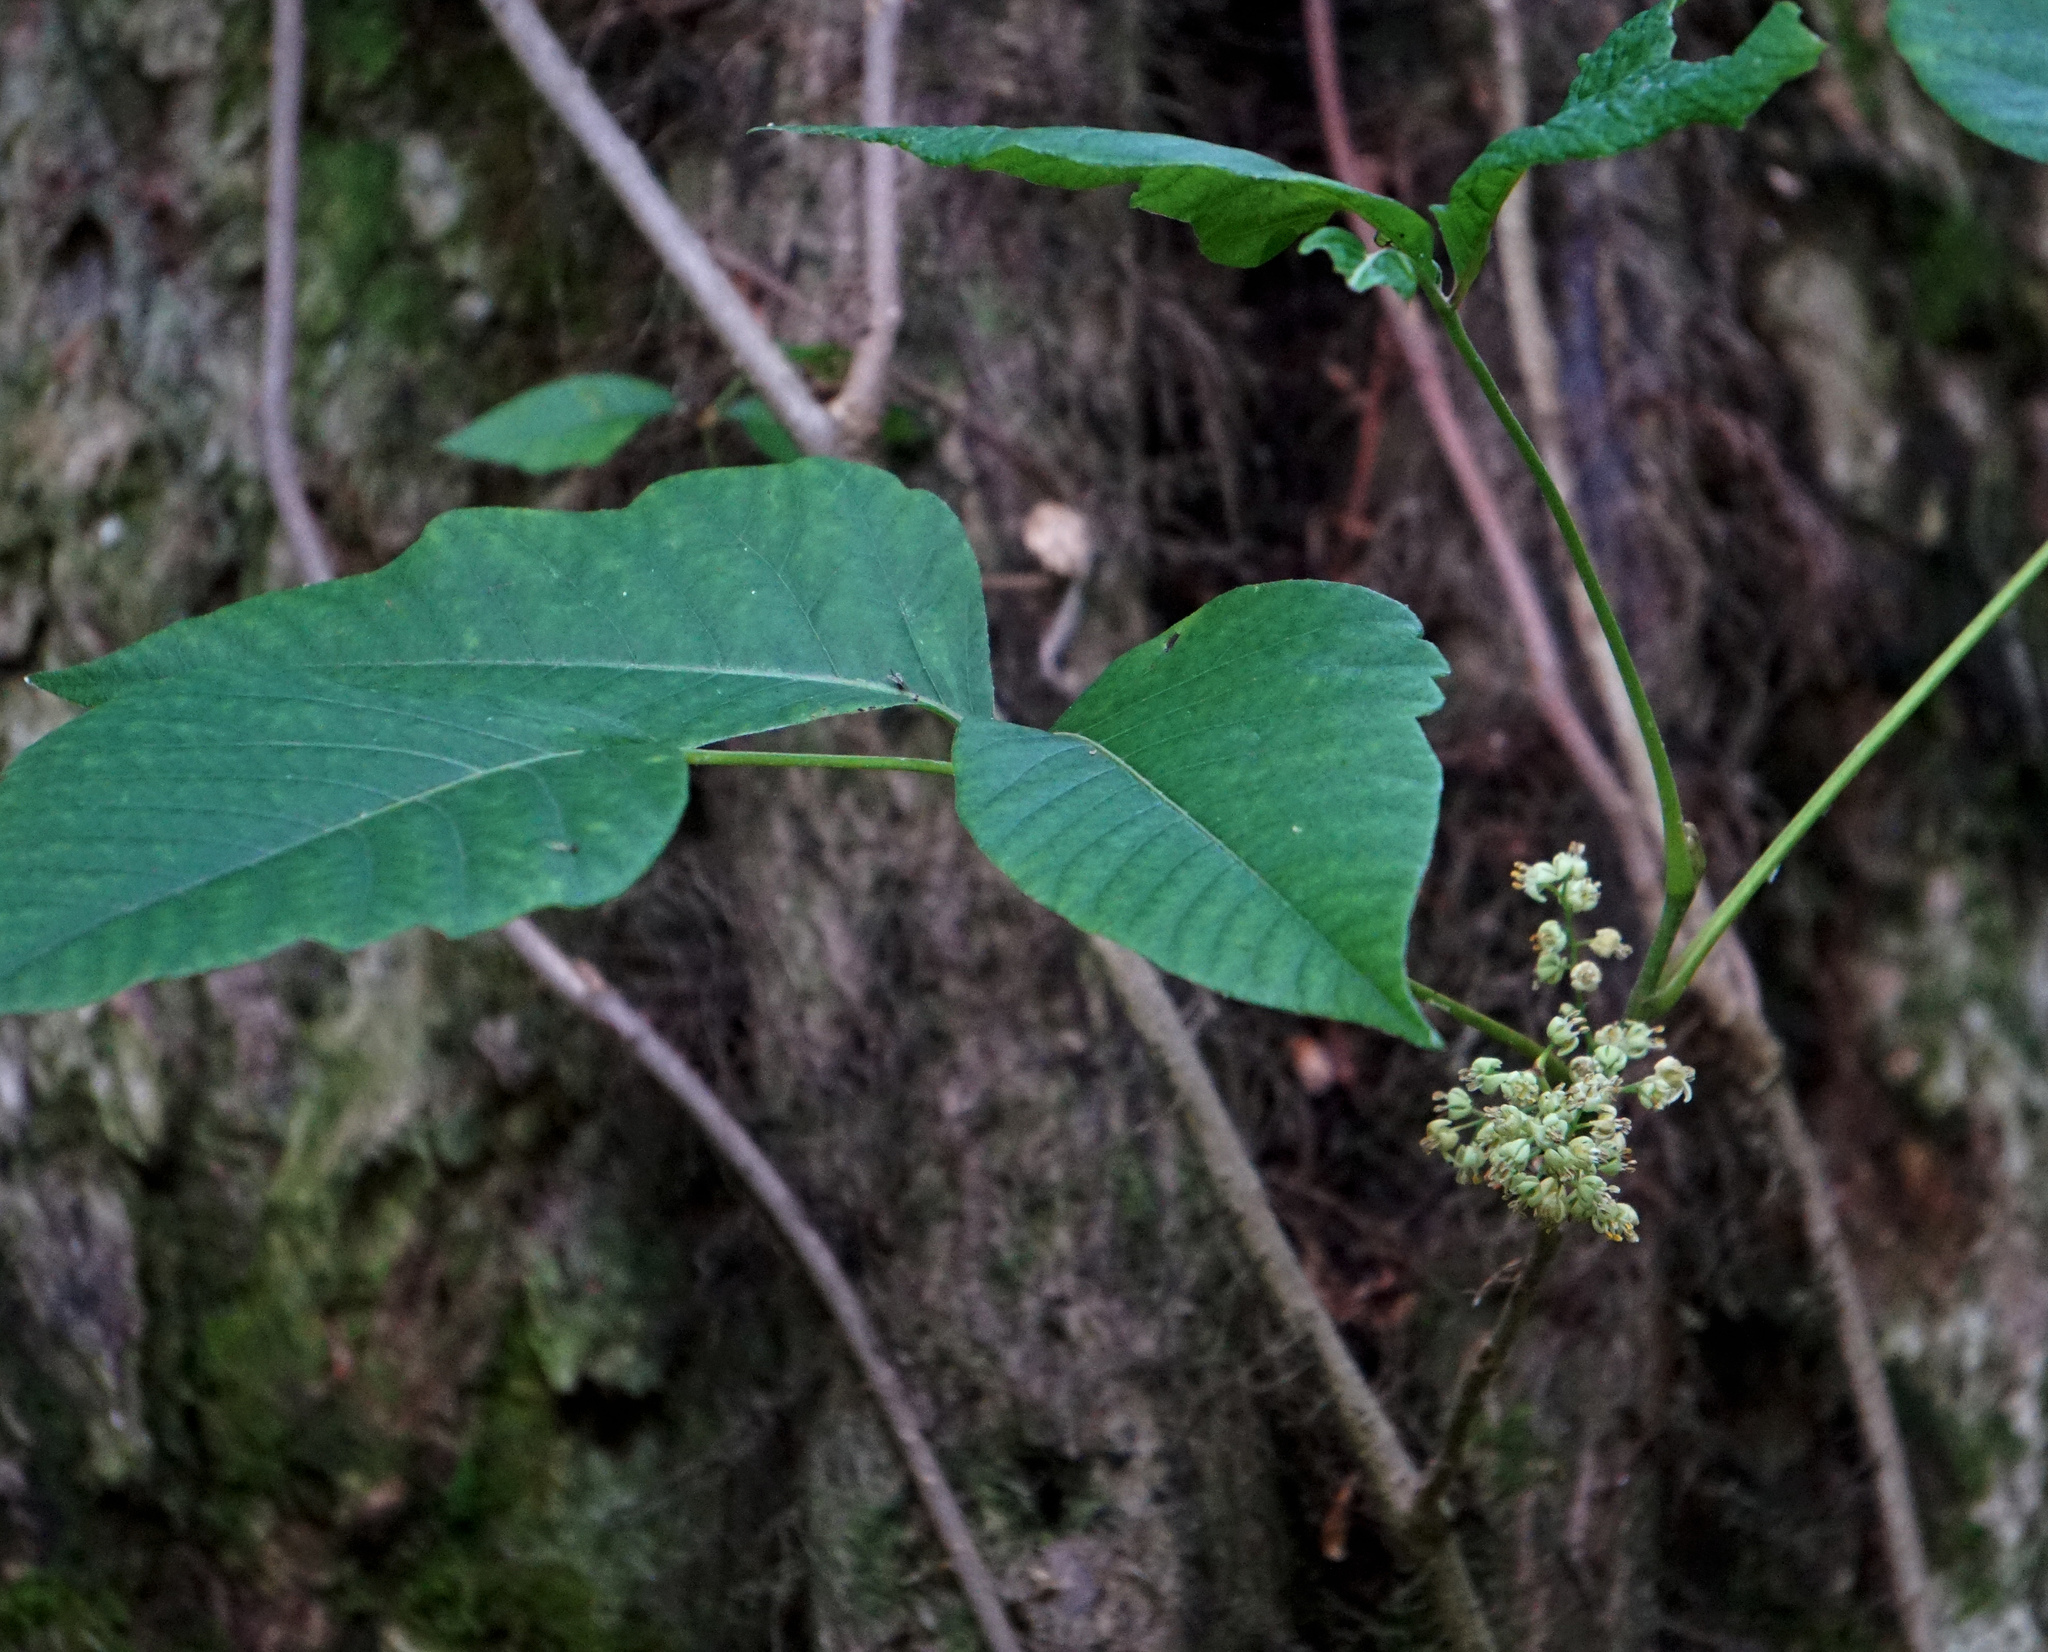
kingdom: Plantae
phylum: Tracheophyta
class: Magnoliopsida
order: Sapindales
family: Anacardiaceae
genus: Toxicodendron
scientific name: Toxicodendron radicans
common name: Poison ivy
